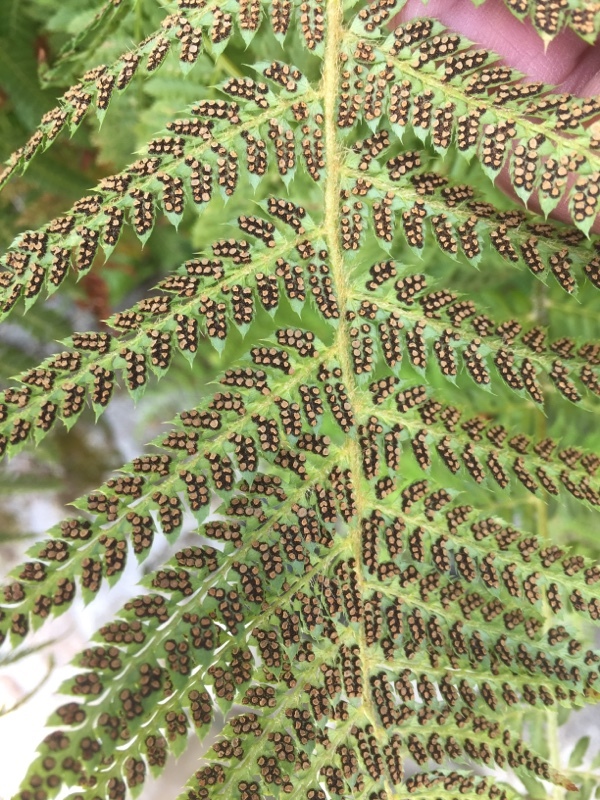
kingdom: Plantae
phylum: Tracheophyta
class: Polypodiopsida
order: Polypodiales
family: Dryopteridaceae
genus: Polystichum
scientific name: Polystichum setiferum
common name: Soft shield-fern
